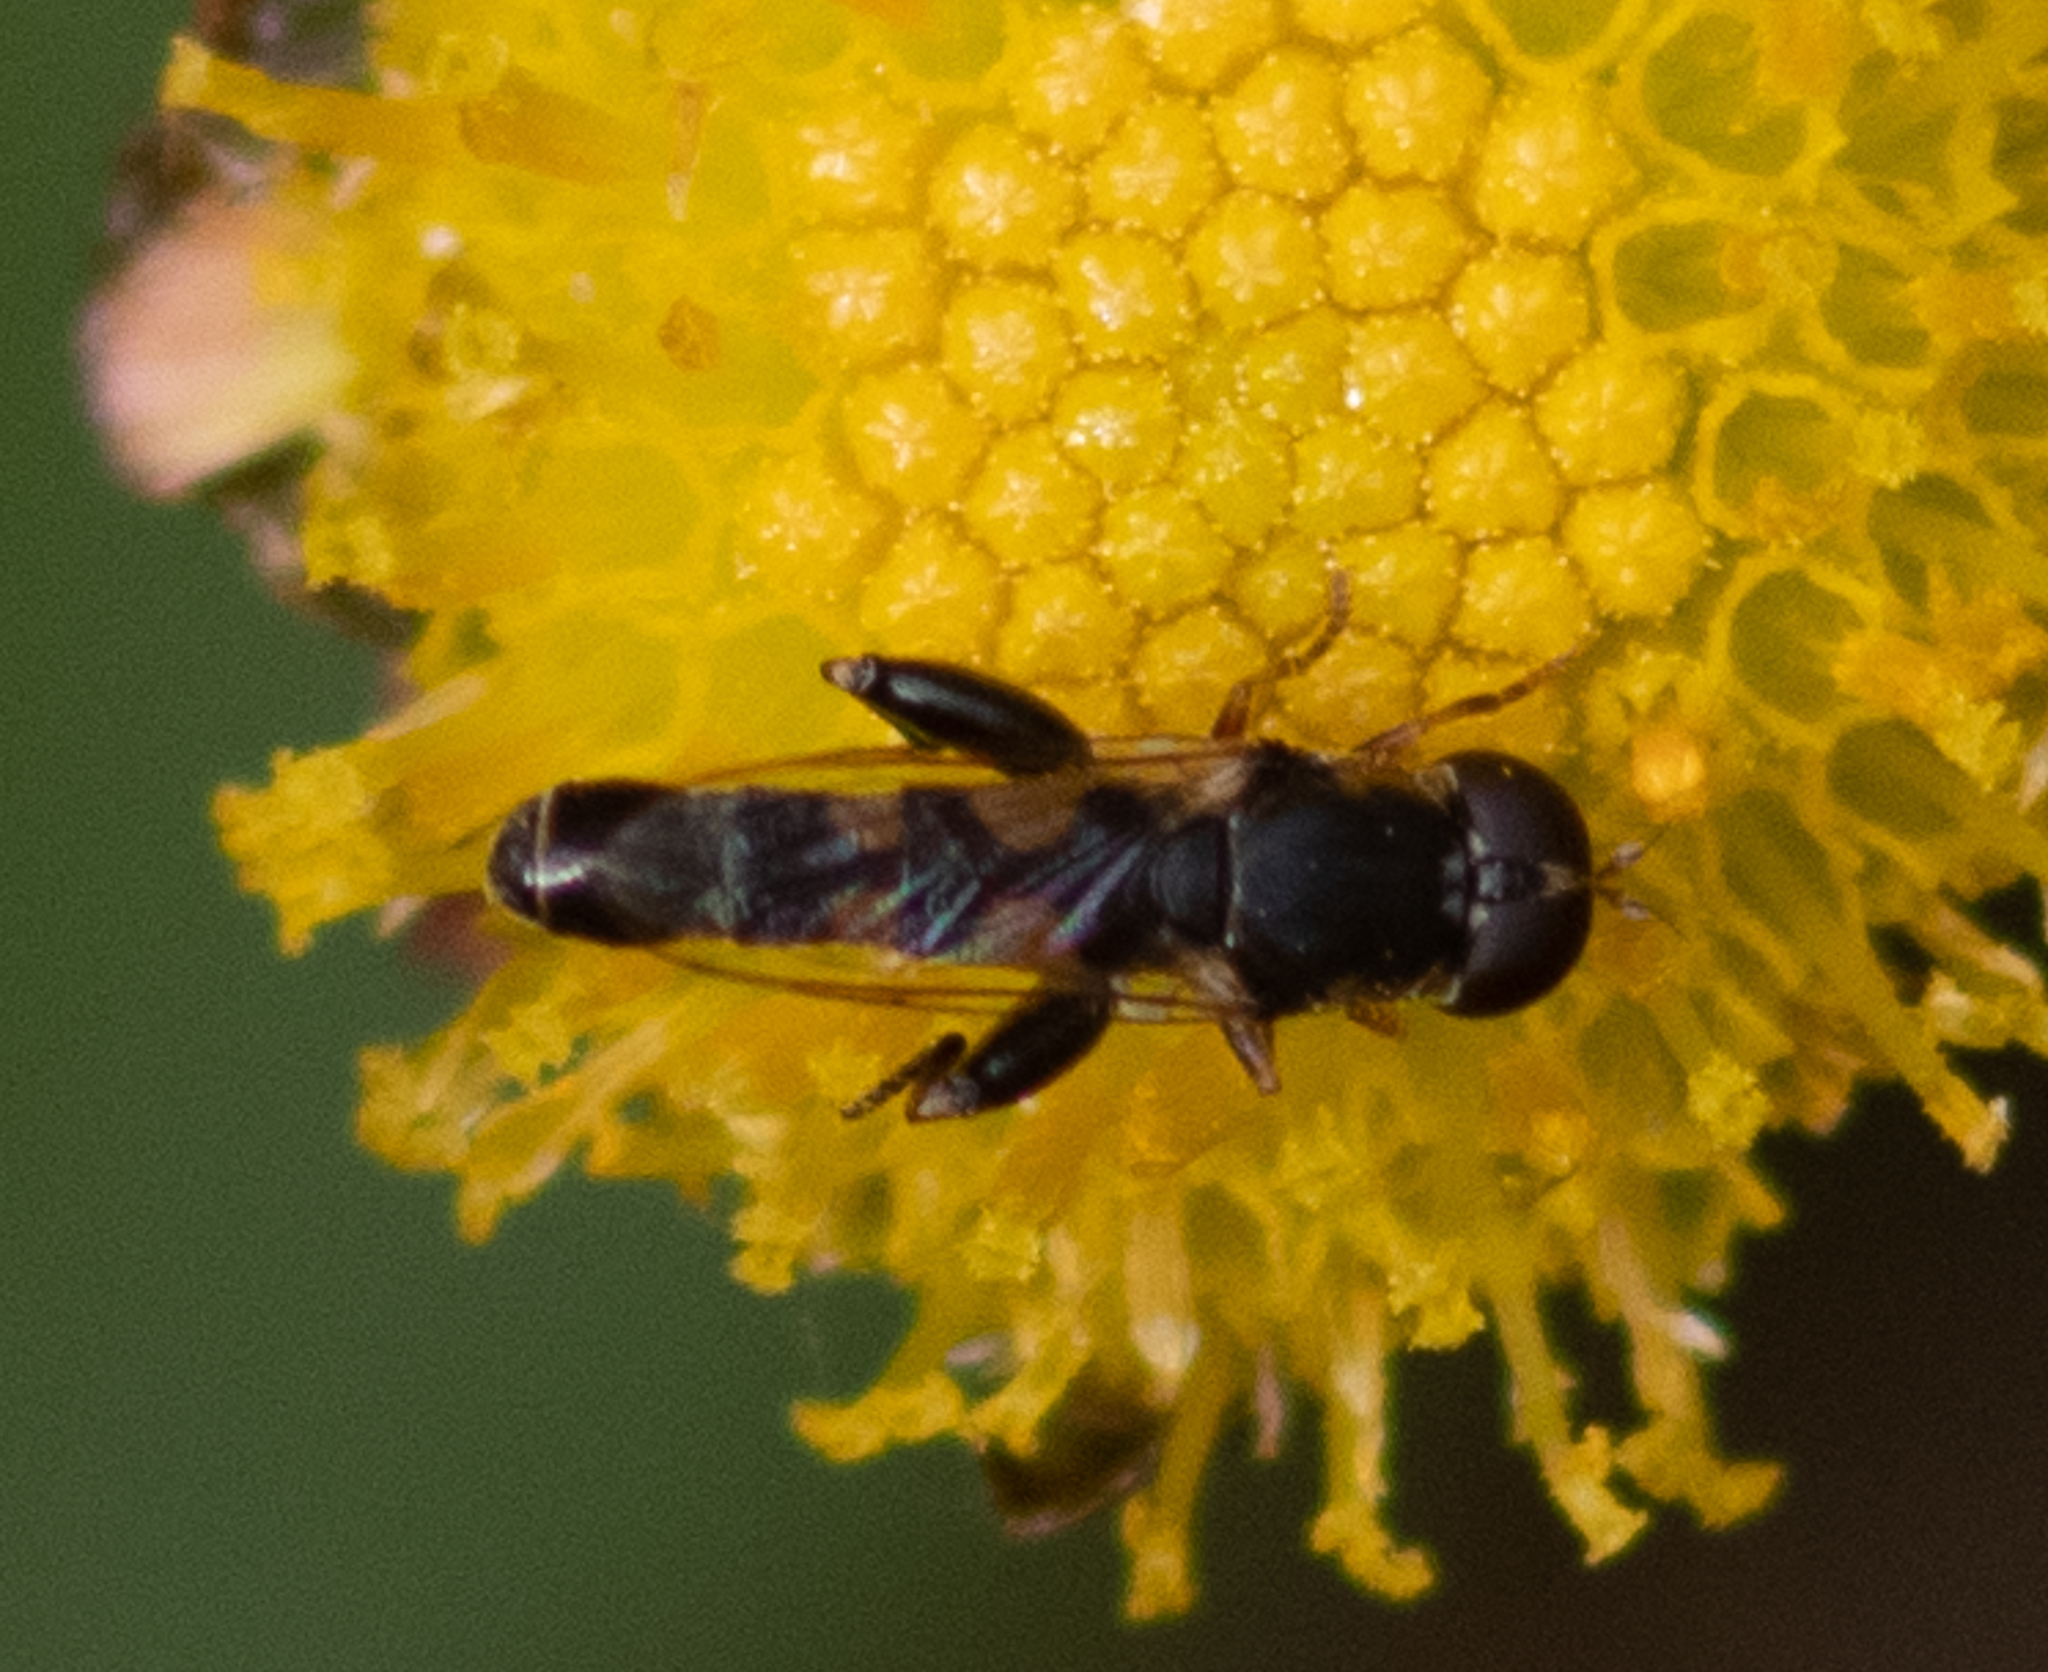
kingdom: Animalia
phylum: Arthropoda
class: Insecta
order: Diptera
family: Syrphidae
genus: Syritta
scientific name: Syritta pipiens
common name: Hover fly
